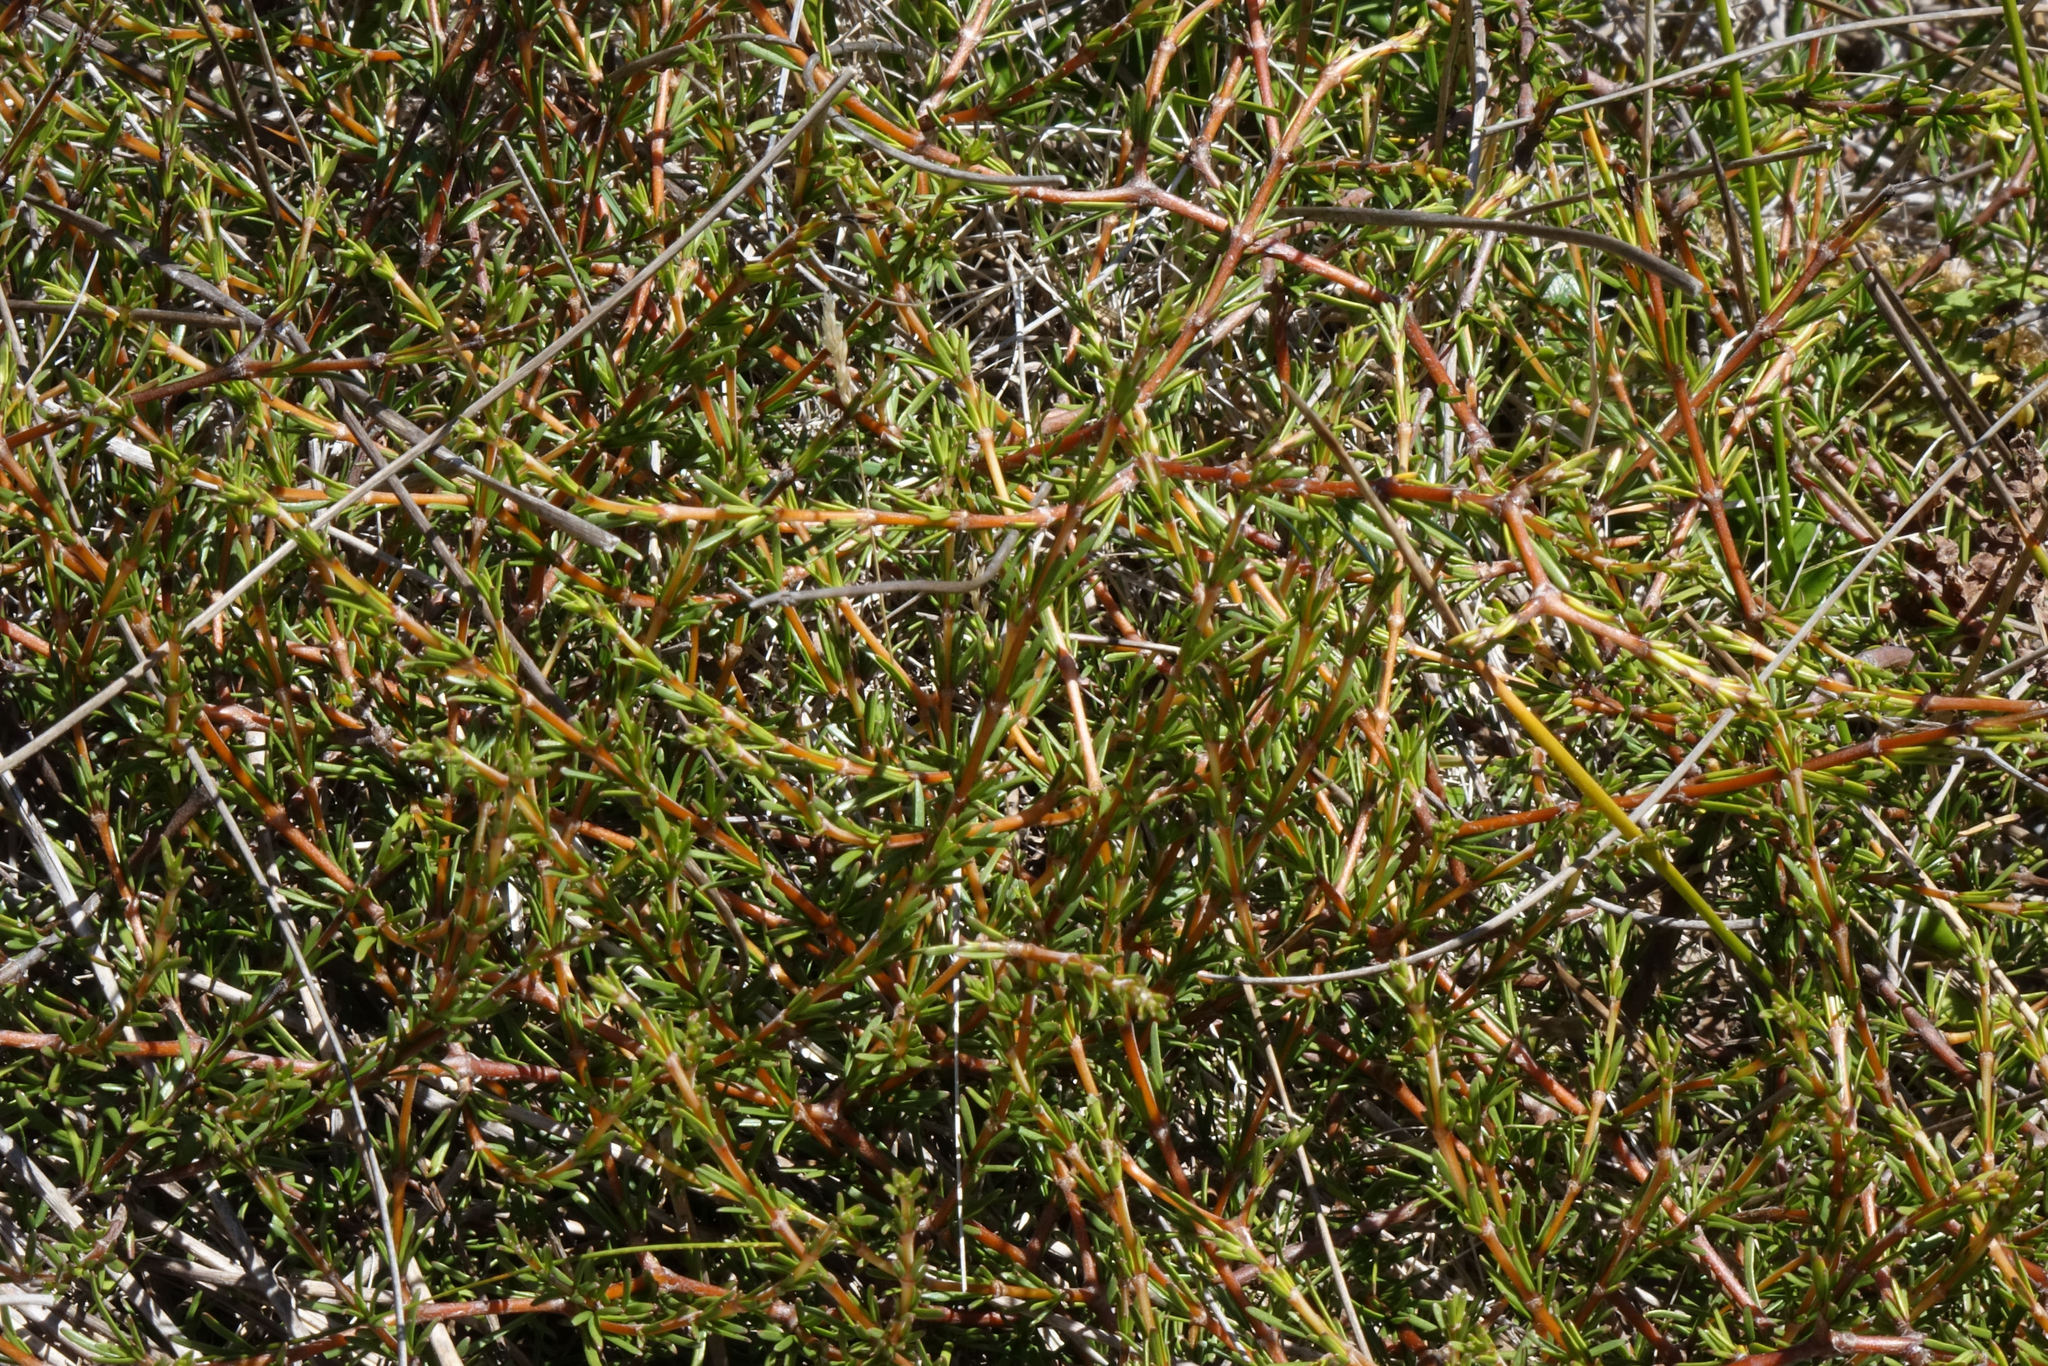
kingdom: Plantae
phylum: Tracheophyta
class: Magnoliopsida
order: Gentianales
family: Rubiaceae
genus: Coprosma
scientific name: Coprosma acerosa
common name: Sand coprosma
